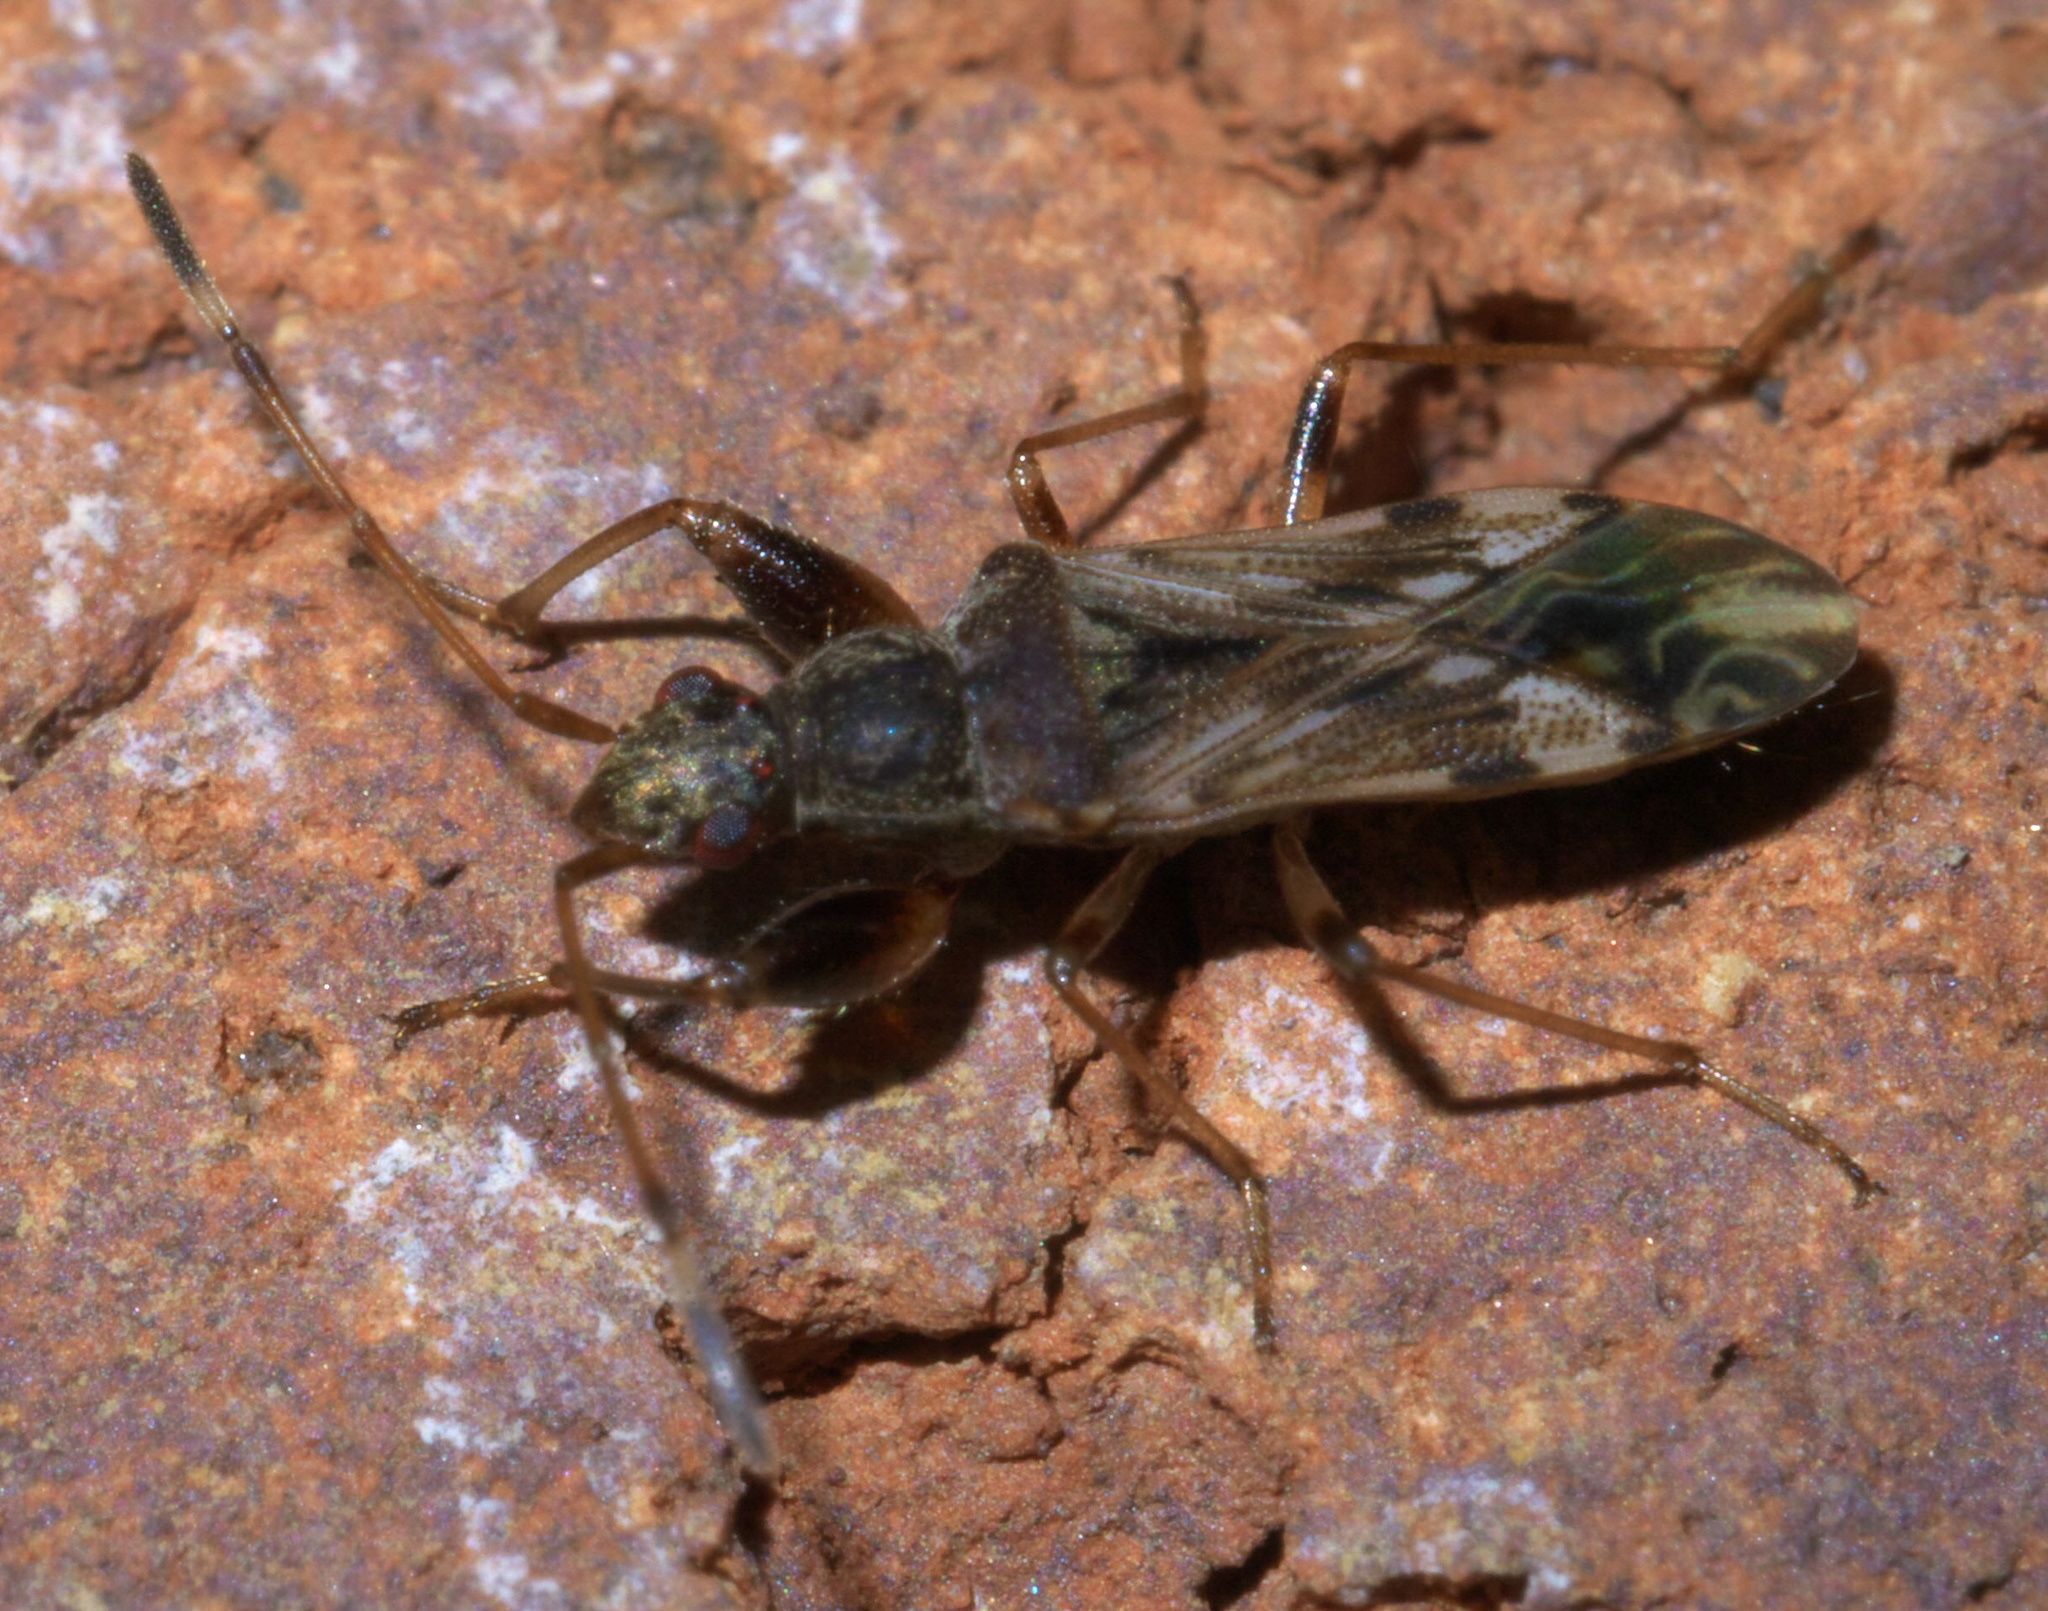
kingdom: Animalia
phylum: Arthropoda
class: Insecta
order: Hemiptera
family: Rhyparochromidae
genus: Neopamera
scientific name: Neopamera albocincta
